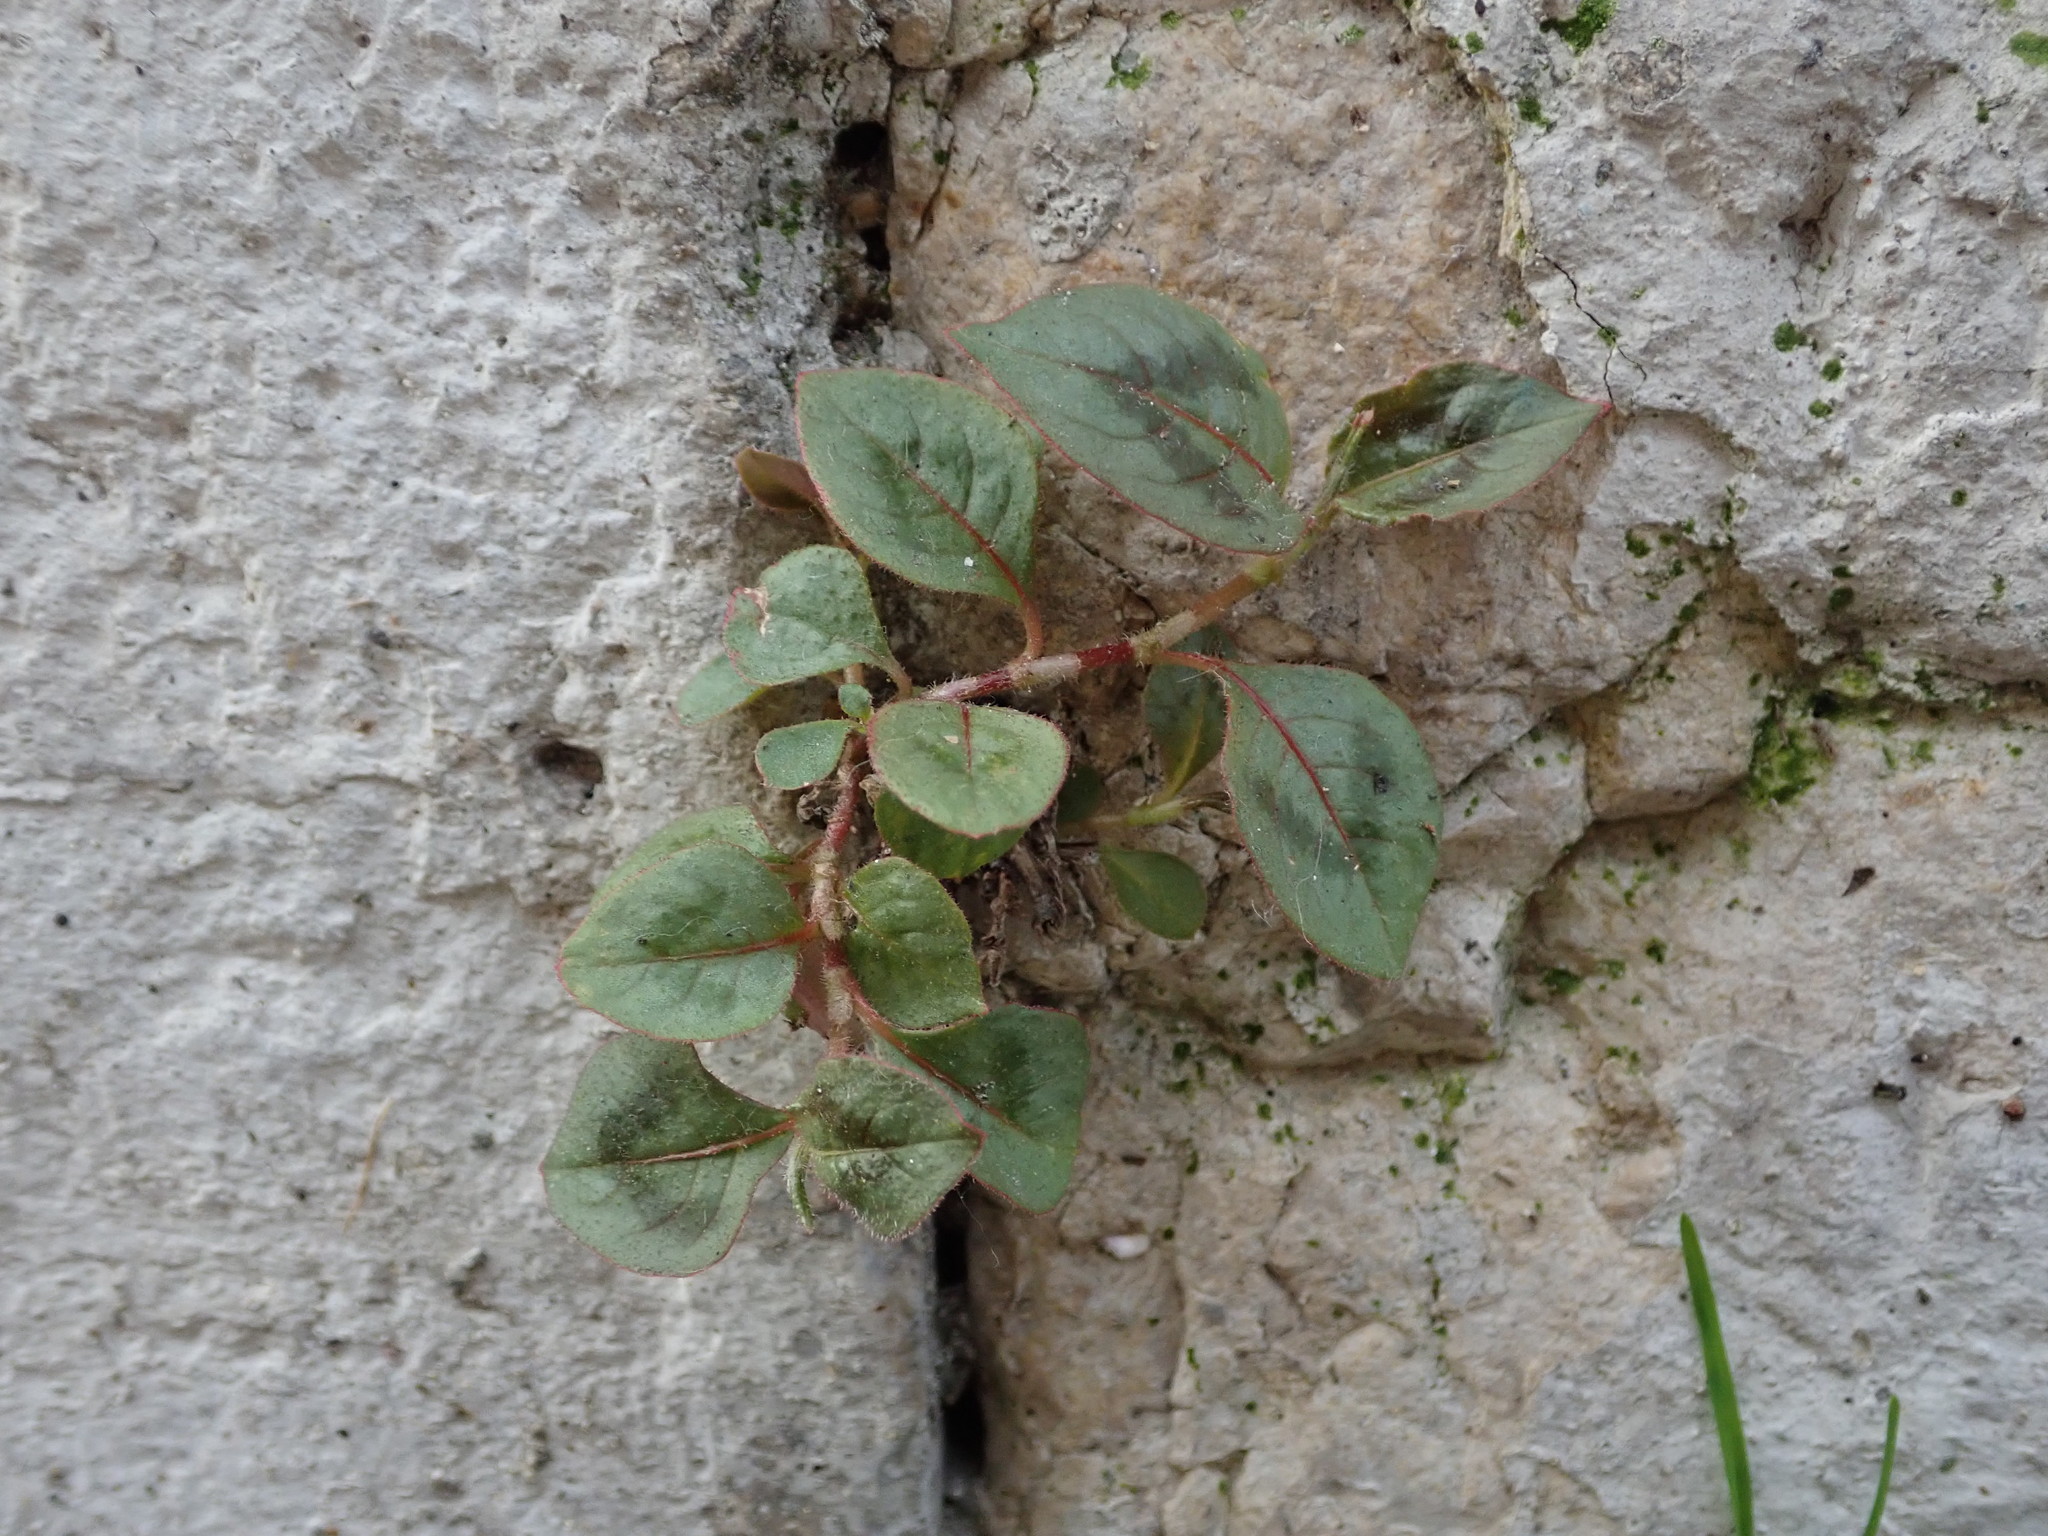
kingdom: Plantae
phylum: Tracheophyta
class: Magnoliopsida
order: Caryophyllales
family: Polygonaceae
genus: Persicaria
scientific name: Persicaria capitata
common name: Pinkhead smartweed
